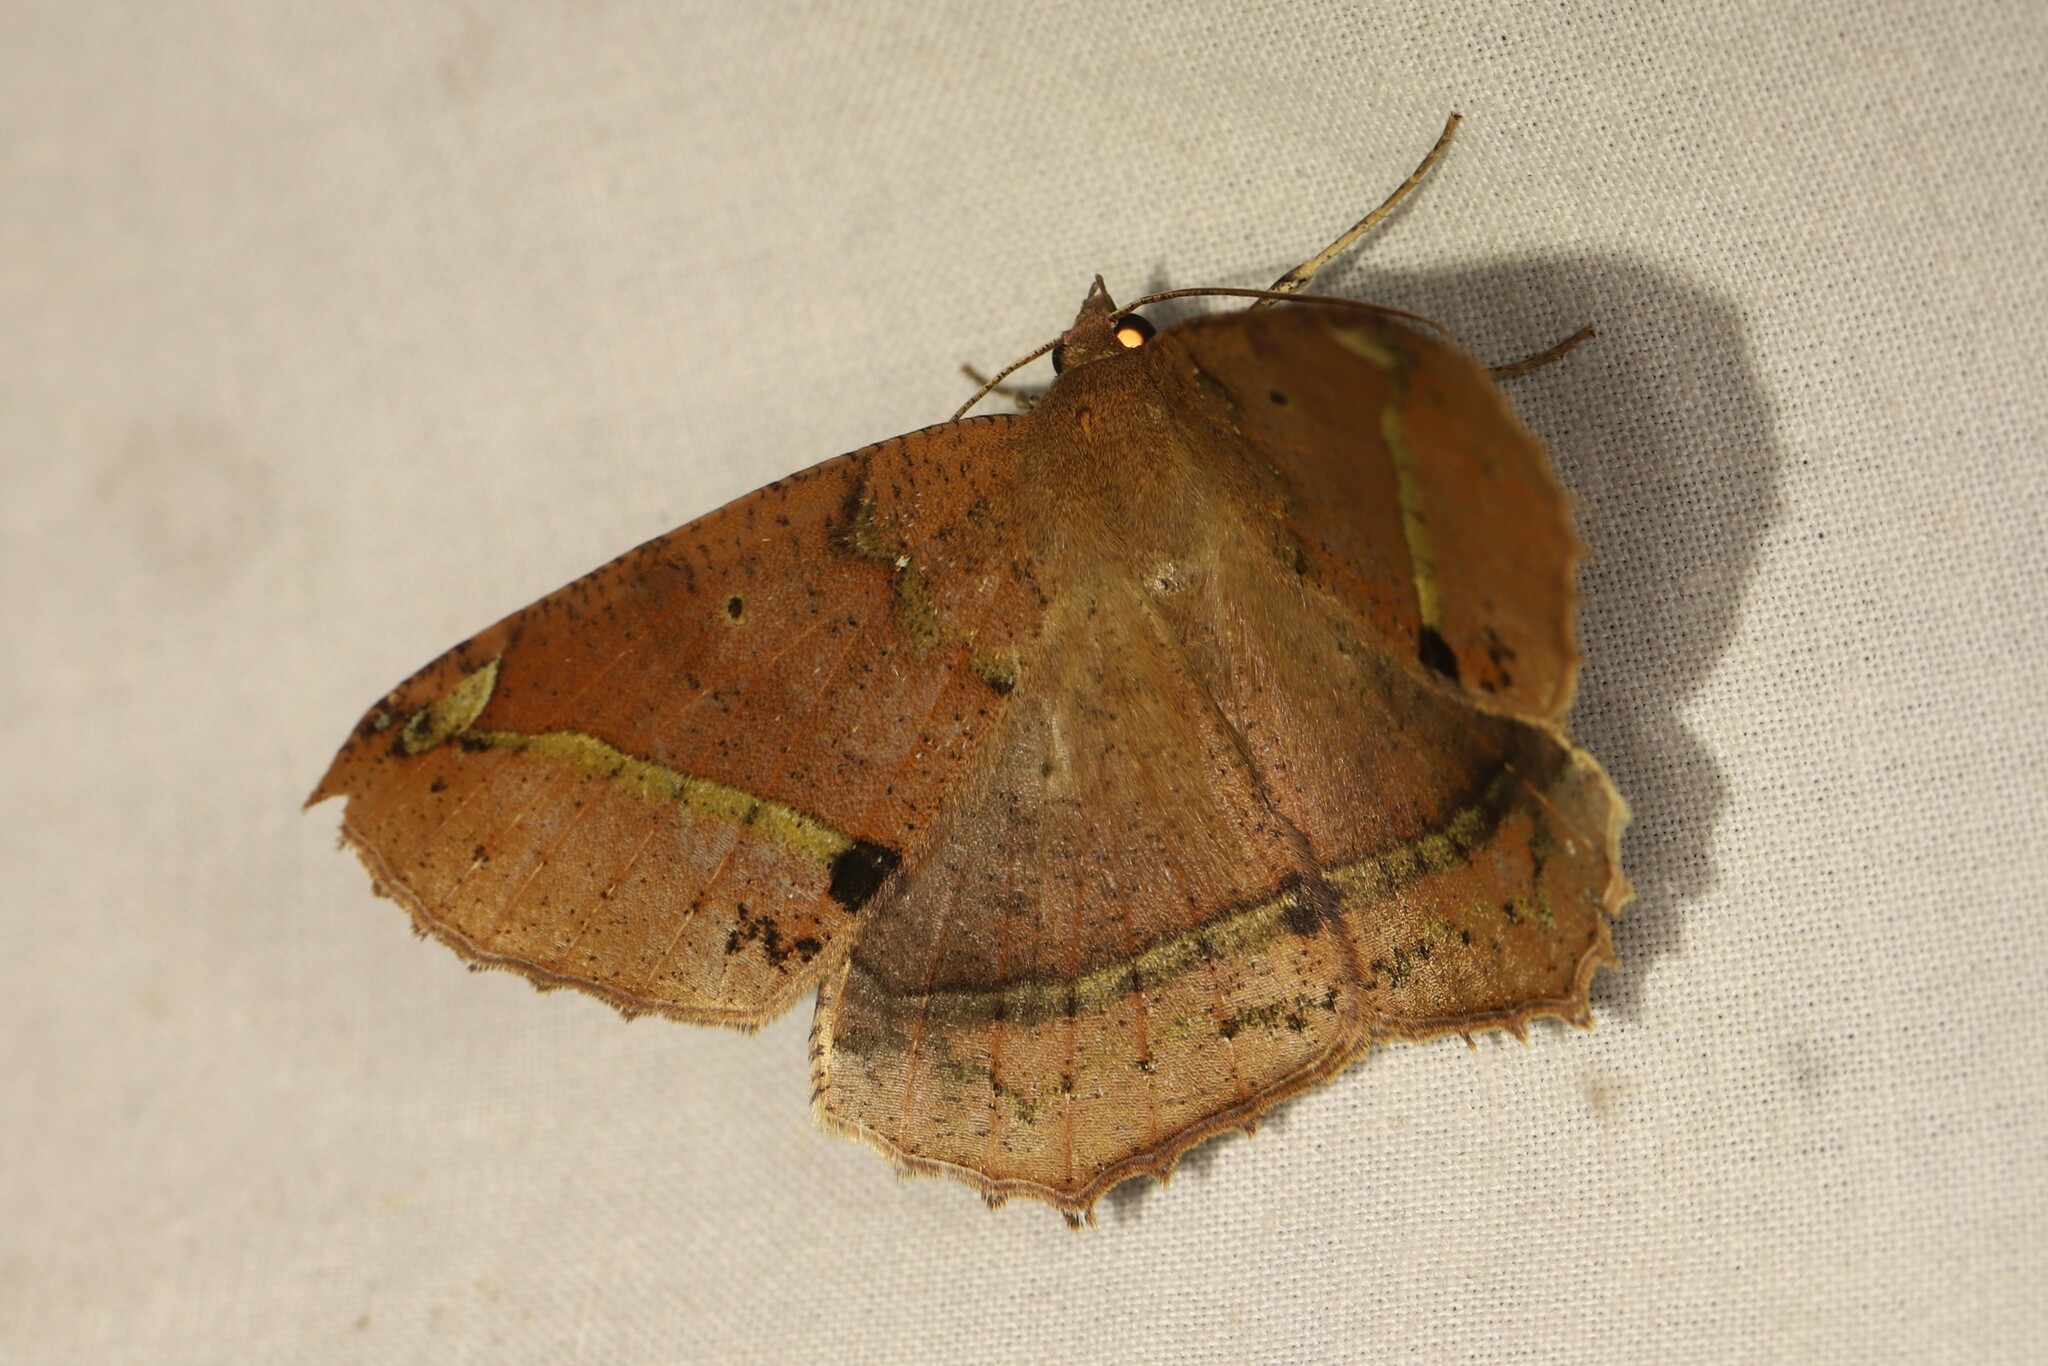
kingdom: Animalia
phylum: Arthropoda
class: Insecta
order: Lepidoptera
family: Geometridae
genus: Bonatea
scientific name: Bonatea duciata
